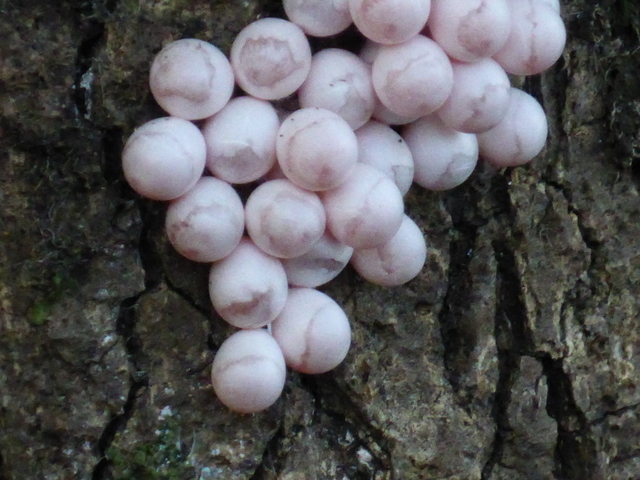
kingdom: Animalia
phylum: Mollusca
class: Gastropoda
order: Architaenioglossa
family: Ampullariidae
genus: Pomacea
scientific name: Pomacea paludosa
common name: Florida applesnail
